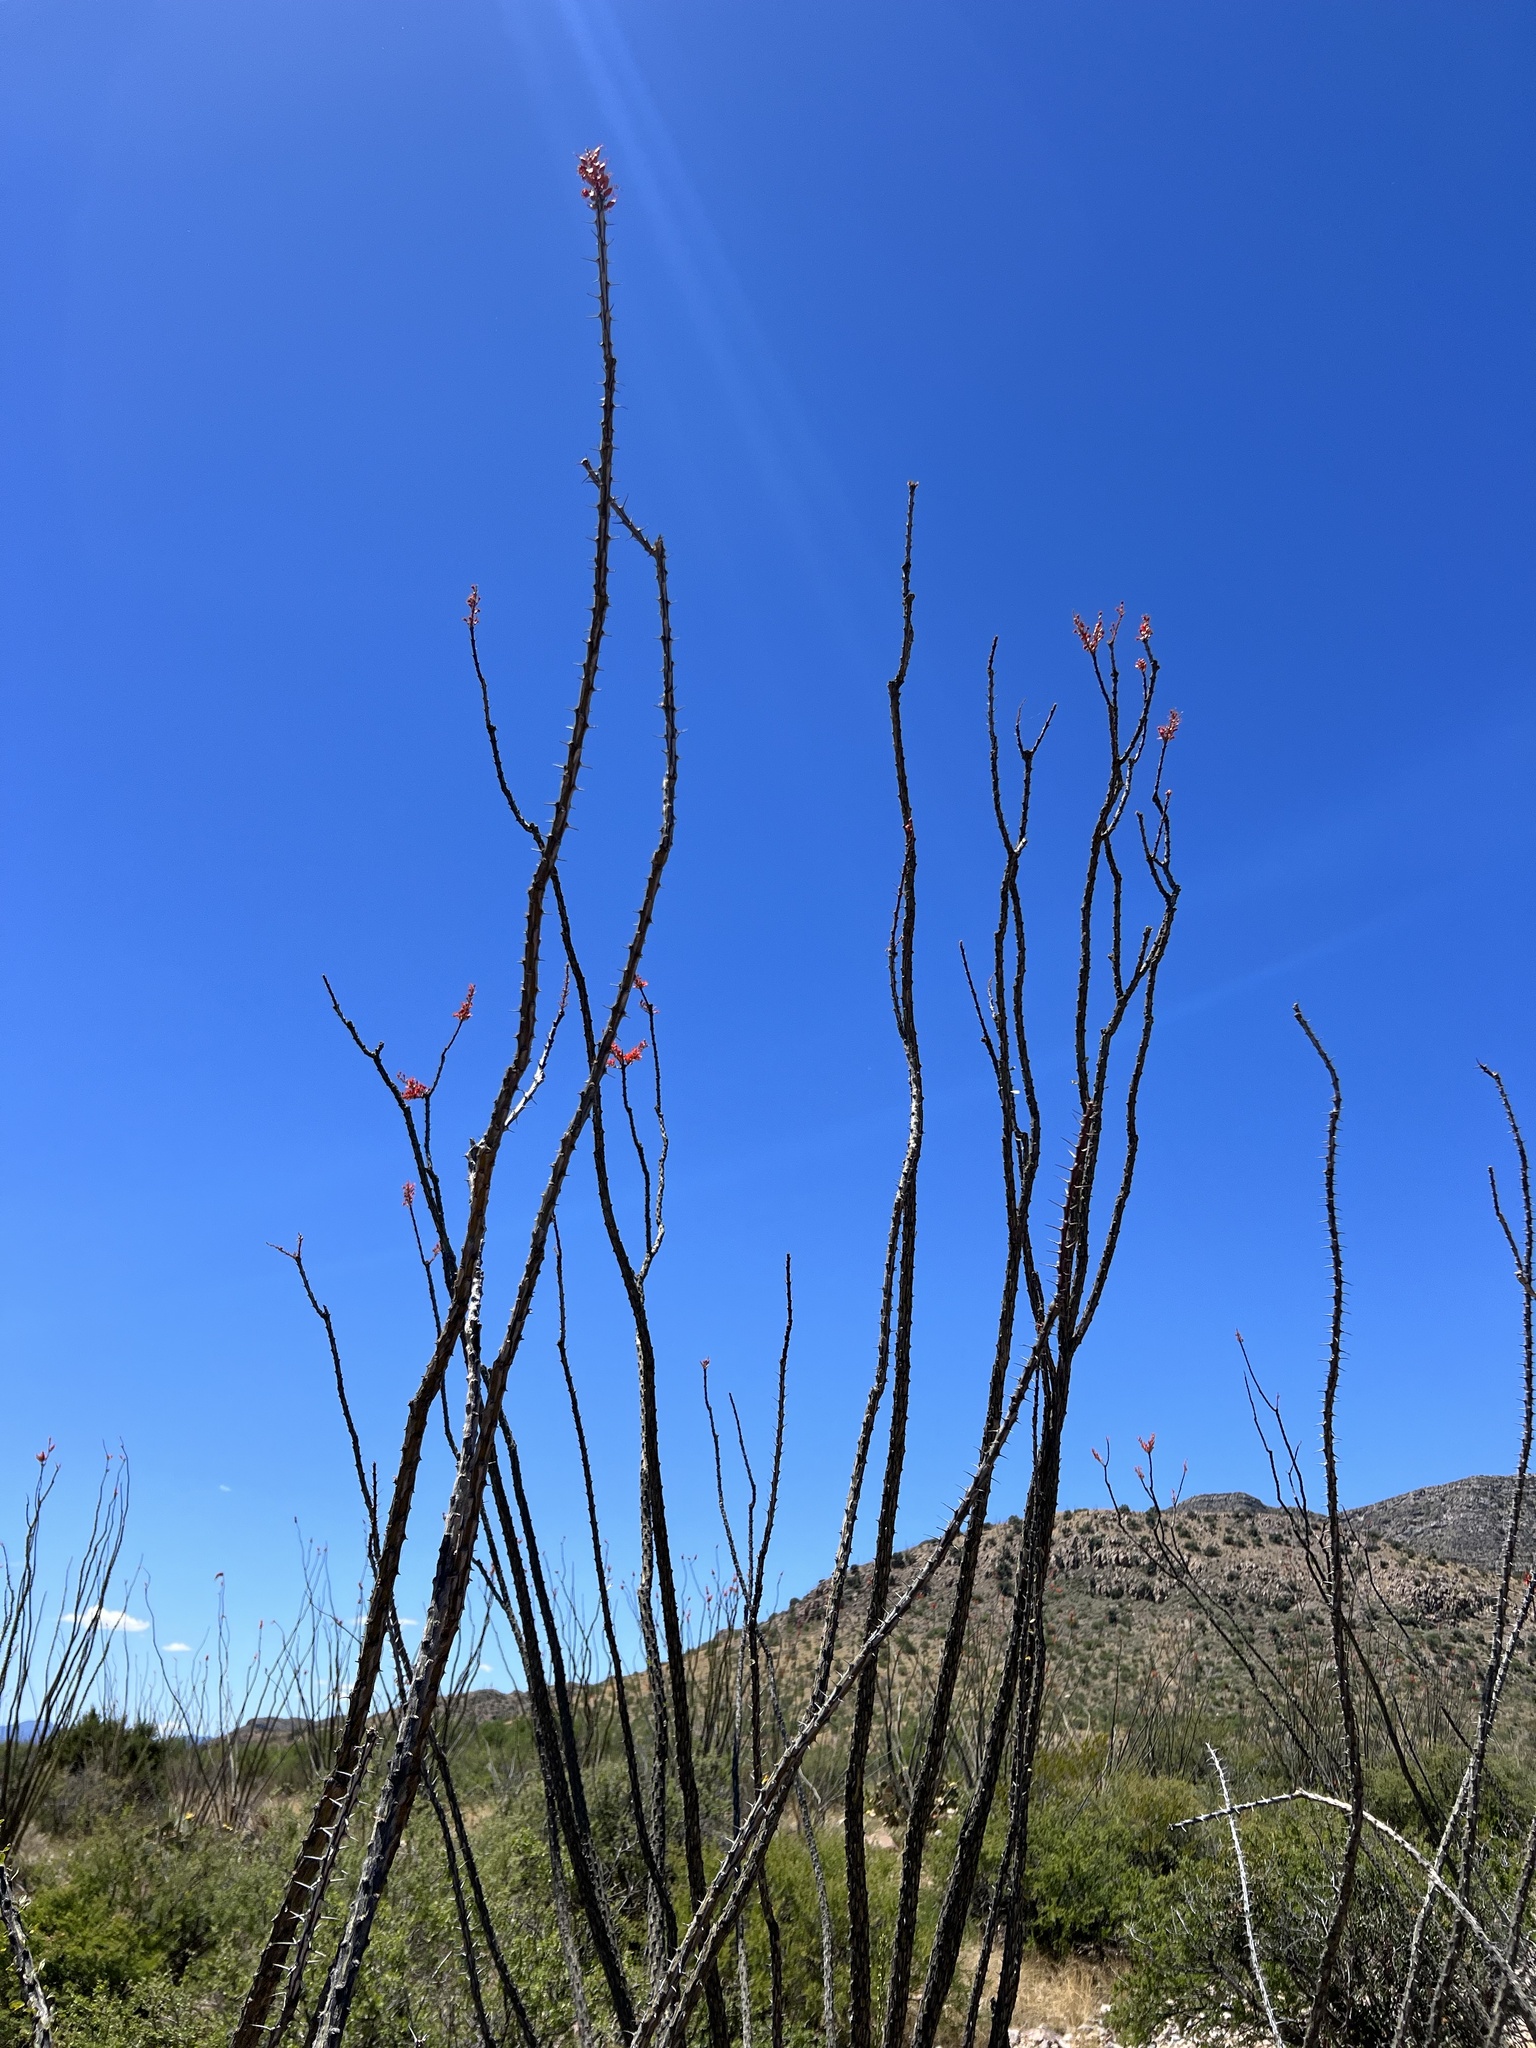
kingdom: Plantae
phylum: Tracheophyta
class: Magnoliopsida
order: Ericales
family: Fouquieriaceae
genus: Fouquieria
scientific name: Fouquieria splendens
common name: Vine-cactus
